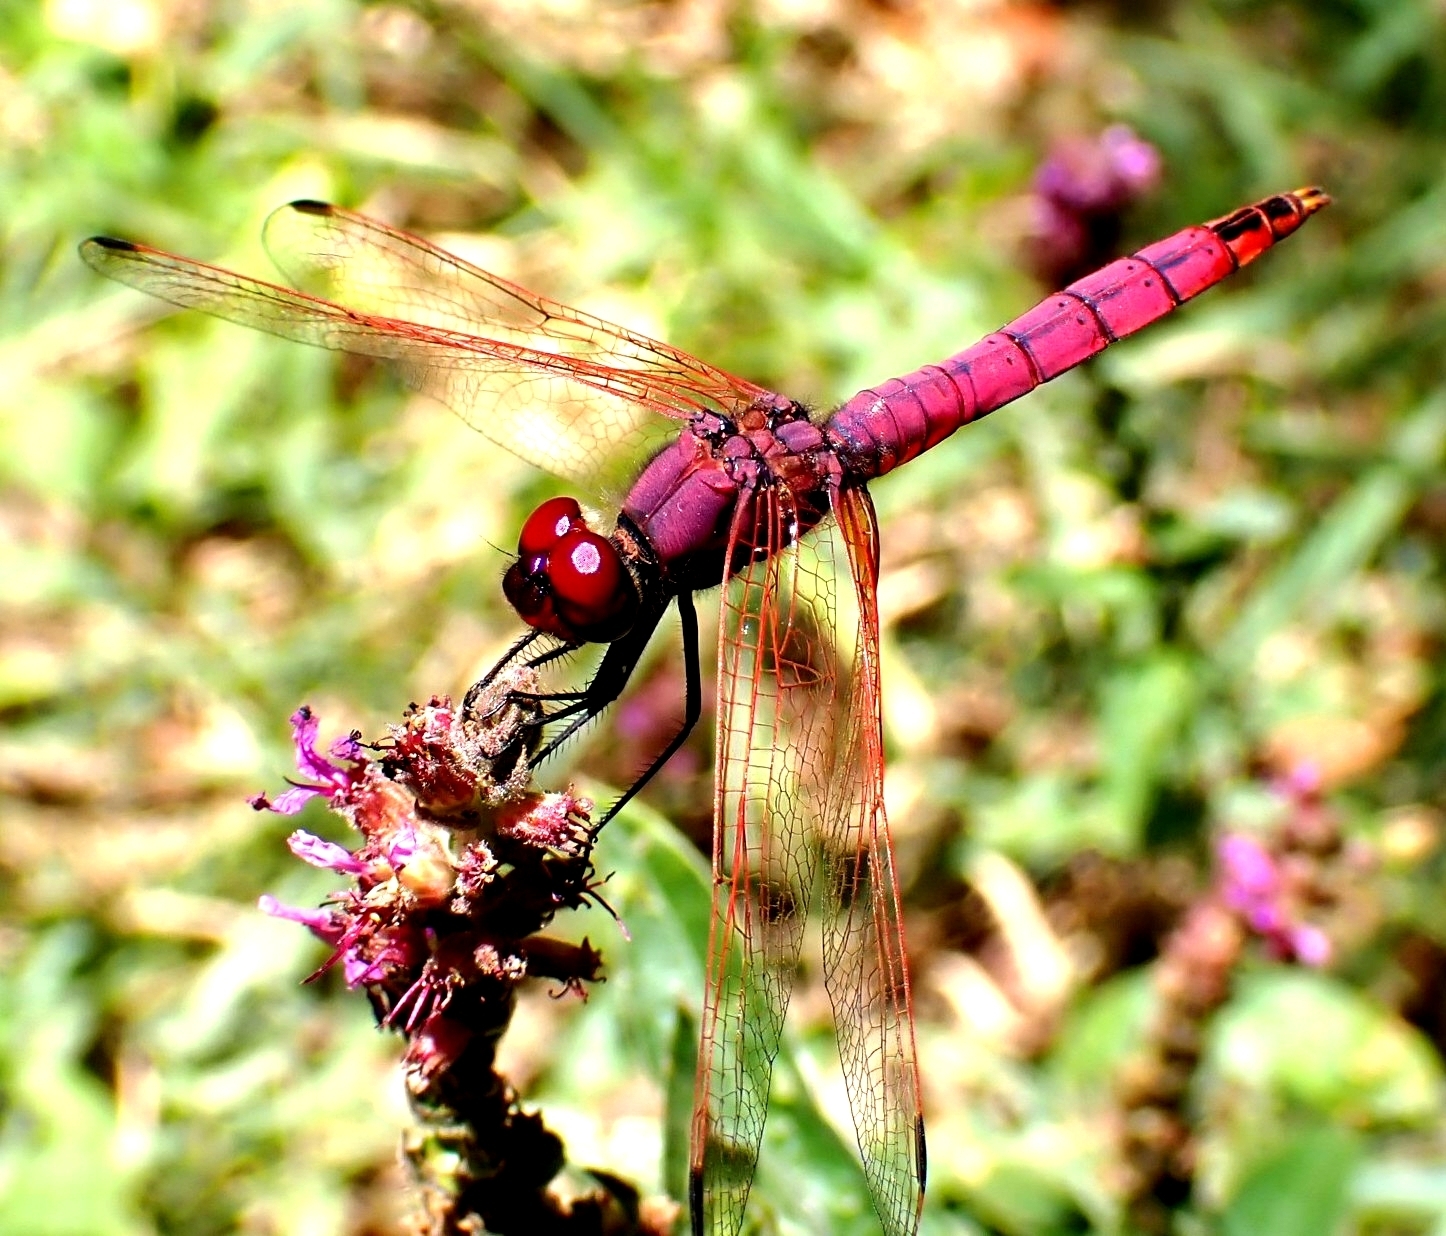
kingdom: Animalia
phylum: Arthropoda
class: Insecta
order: Odonata
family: Libellulidae
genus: Trithemis
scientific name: Trithemis annulata
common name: Violet dropwing
